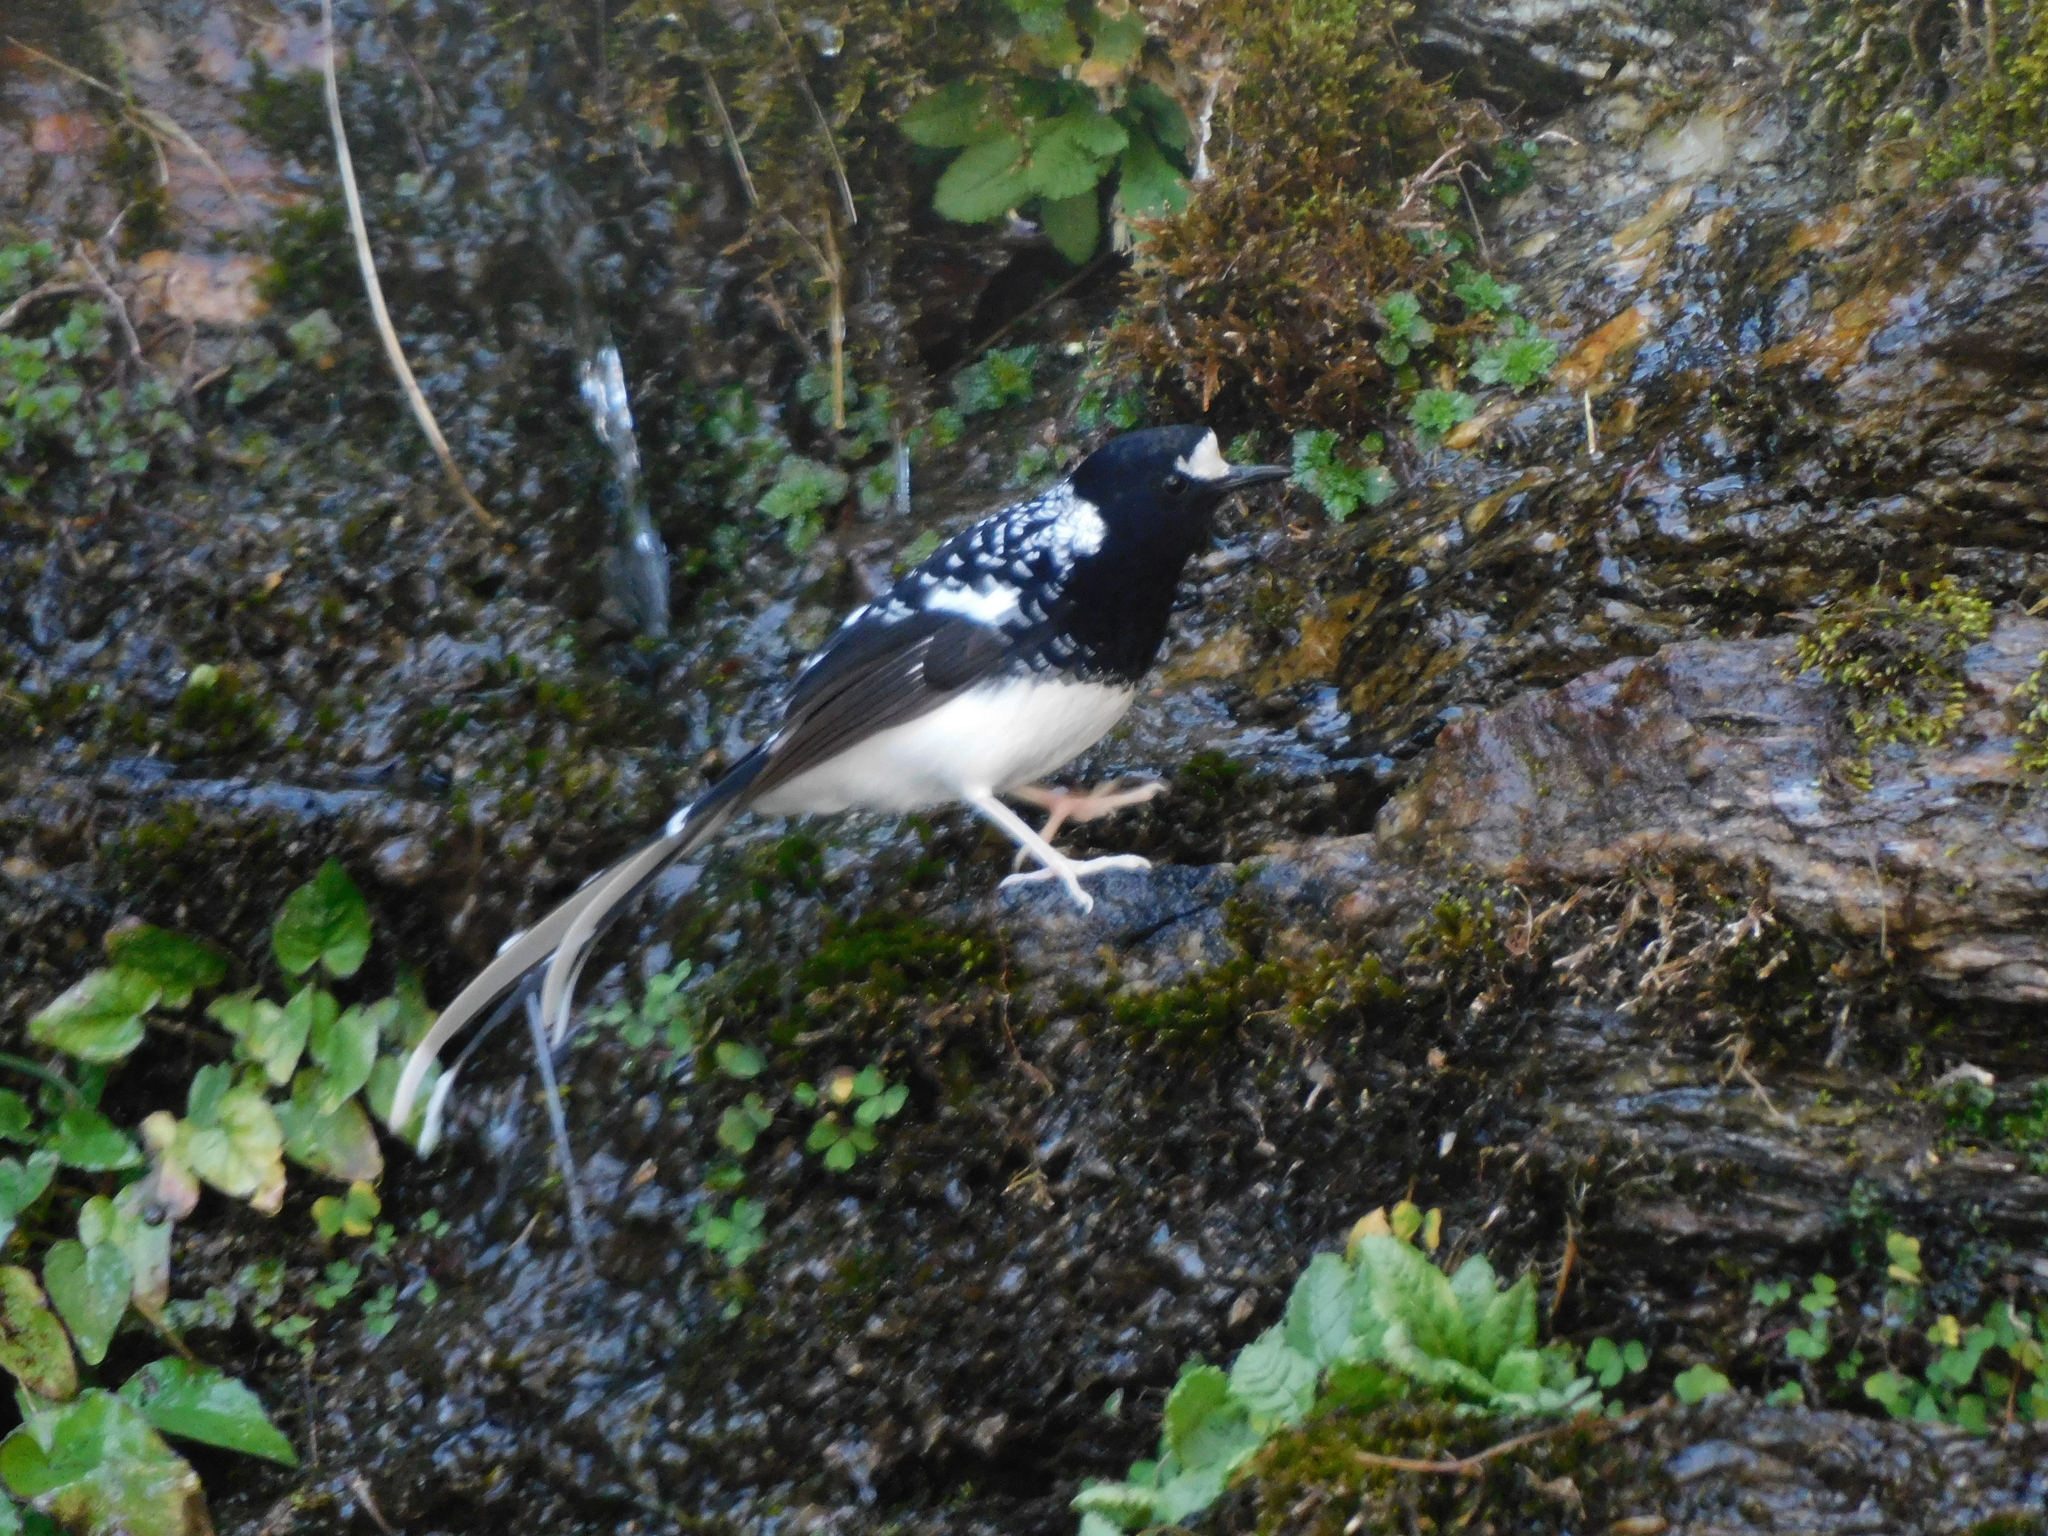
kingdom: Animalia
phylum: Chordata
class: Aves
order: Passeriformes
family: Muscicapidae
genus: Enicurus
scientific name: Enicurus maculatus
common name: Spotted forktail
